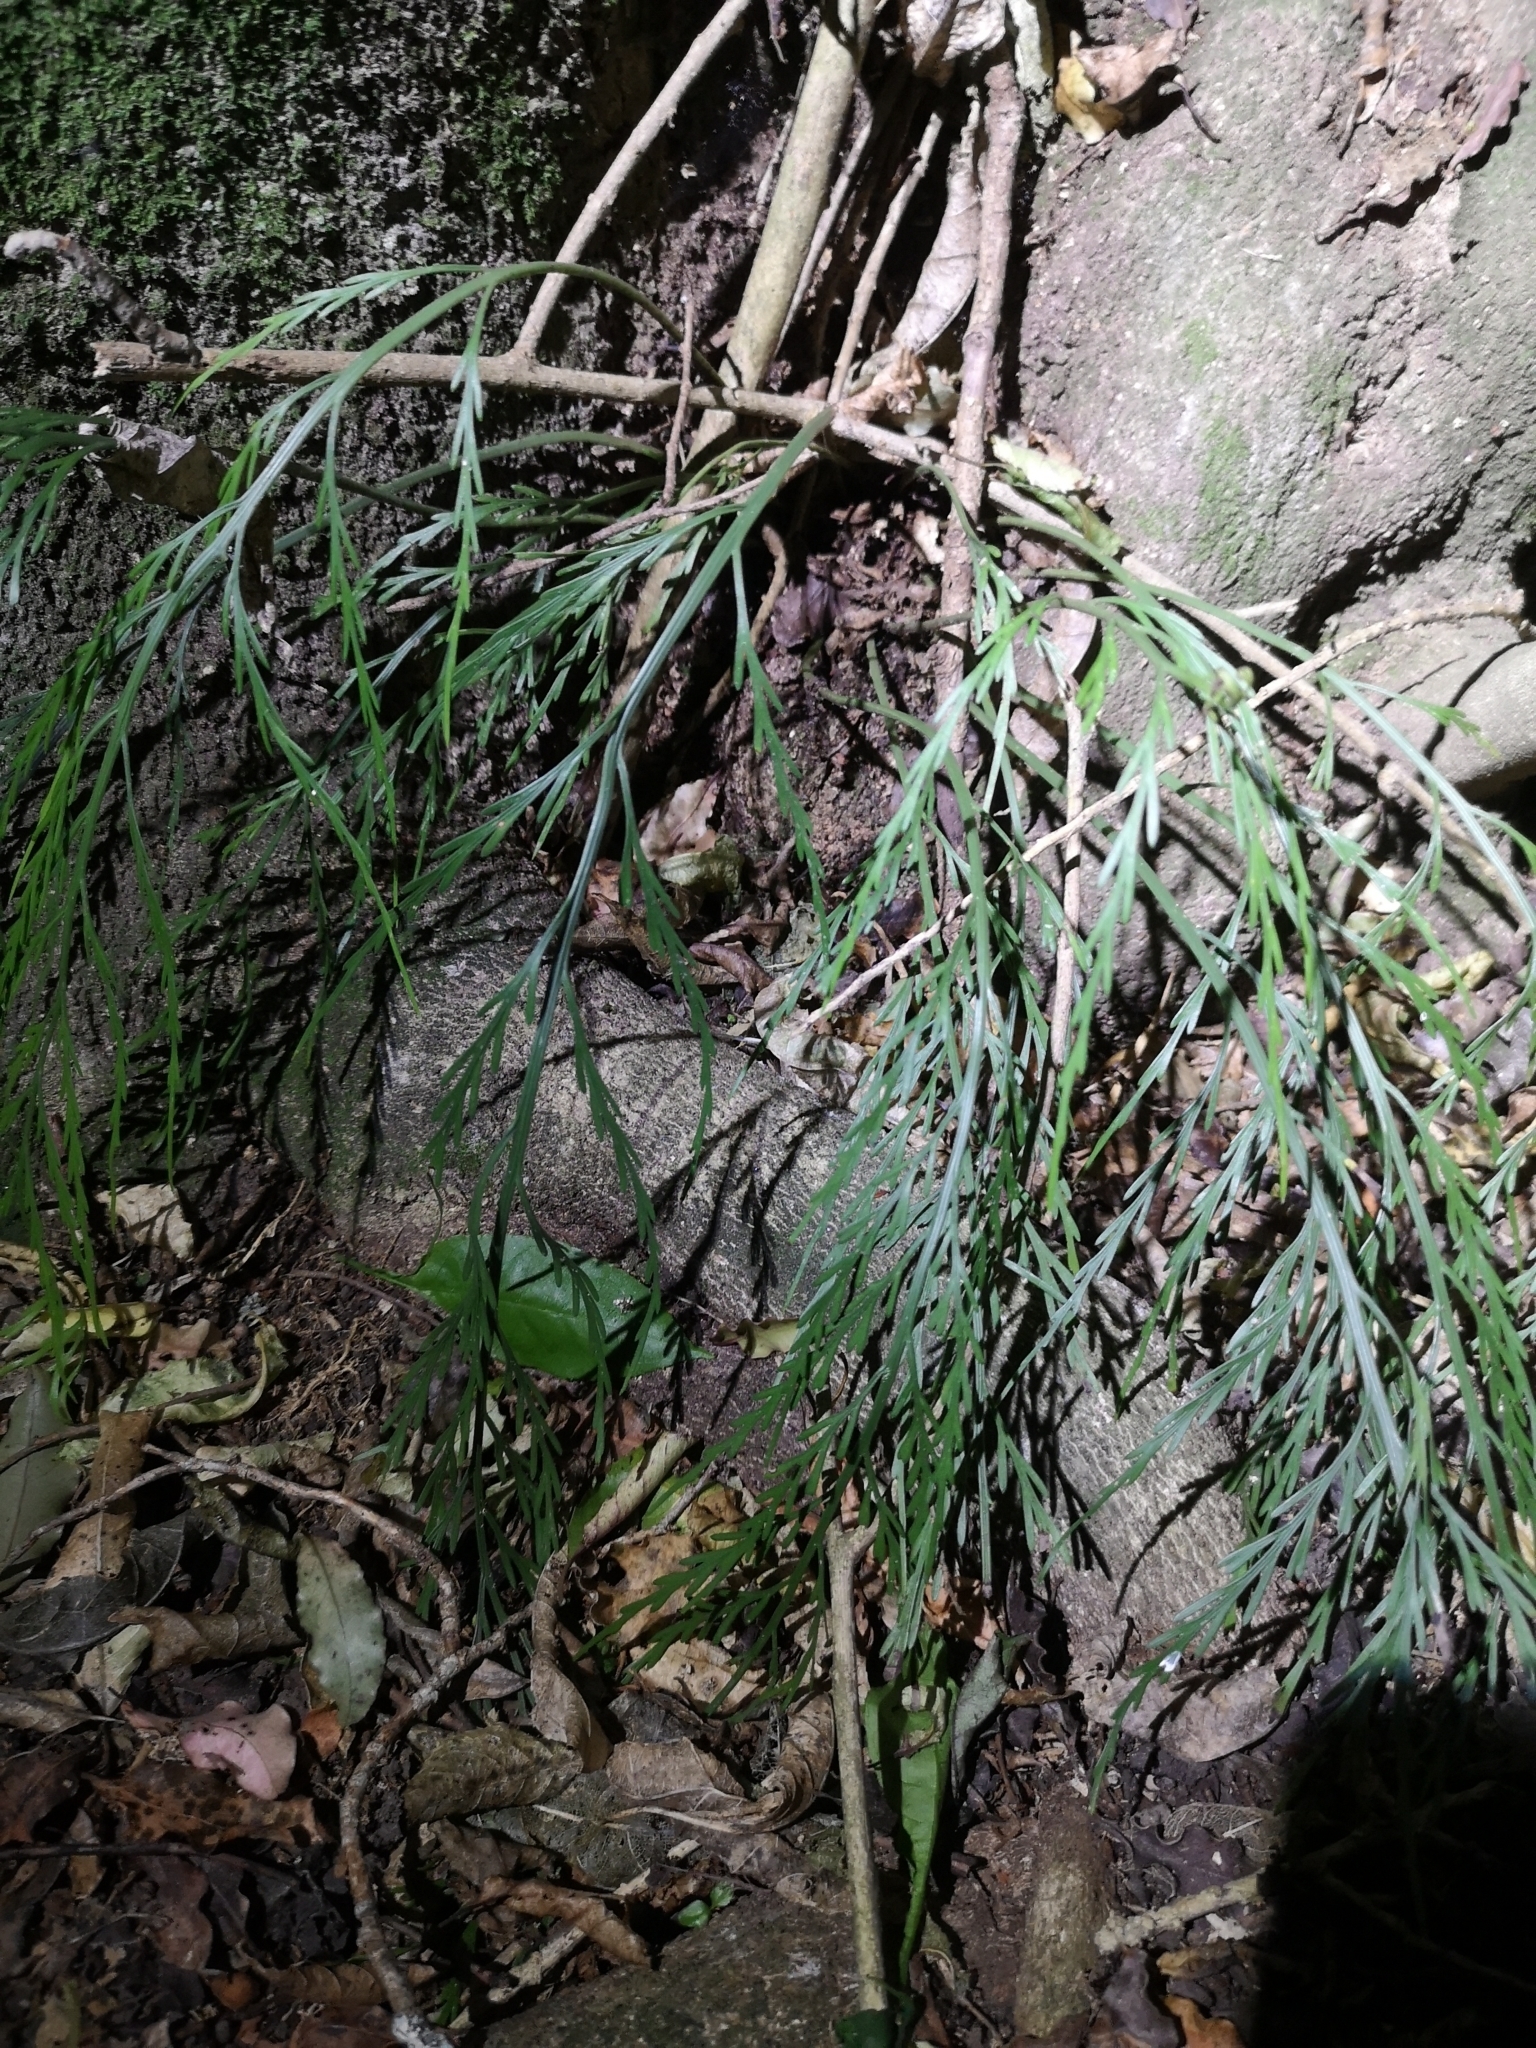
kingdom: Plantae
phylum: Tracheophyta
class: Polypodiopsida
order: Polypodiales
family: Aspleniaceae
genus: Asplenium
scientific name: Asplenium flaccidum
